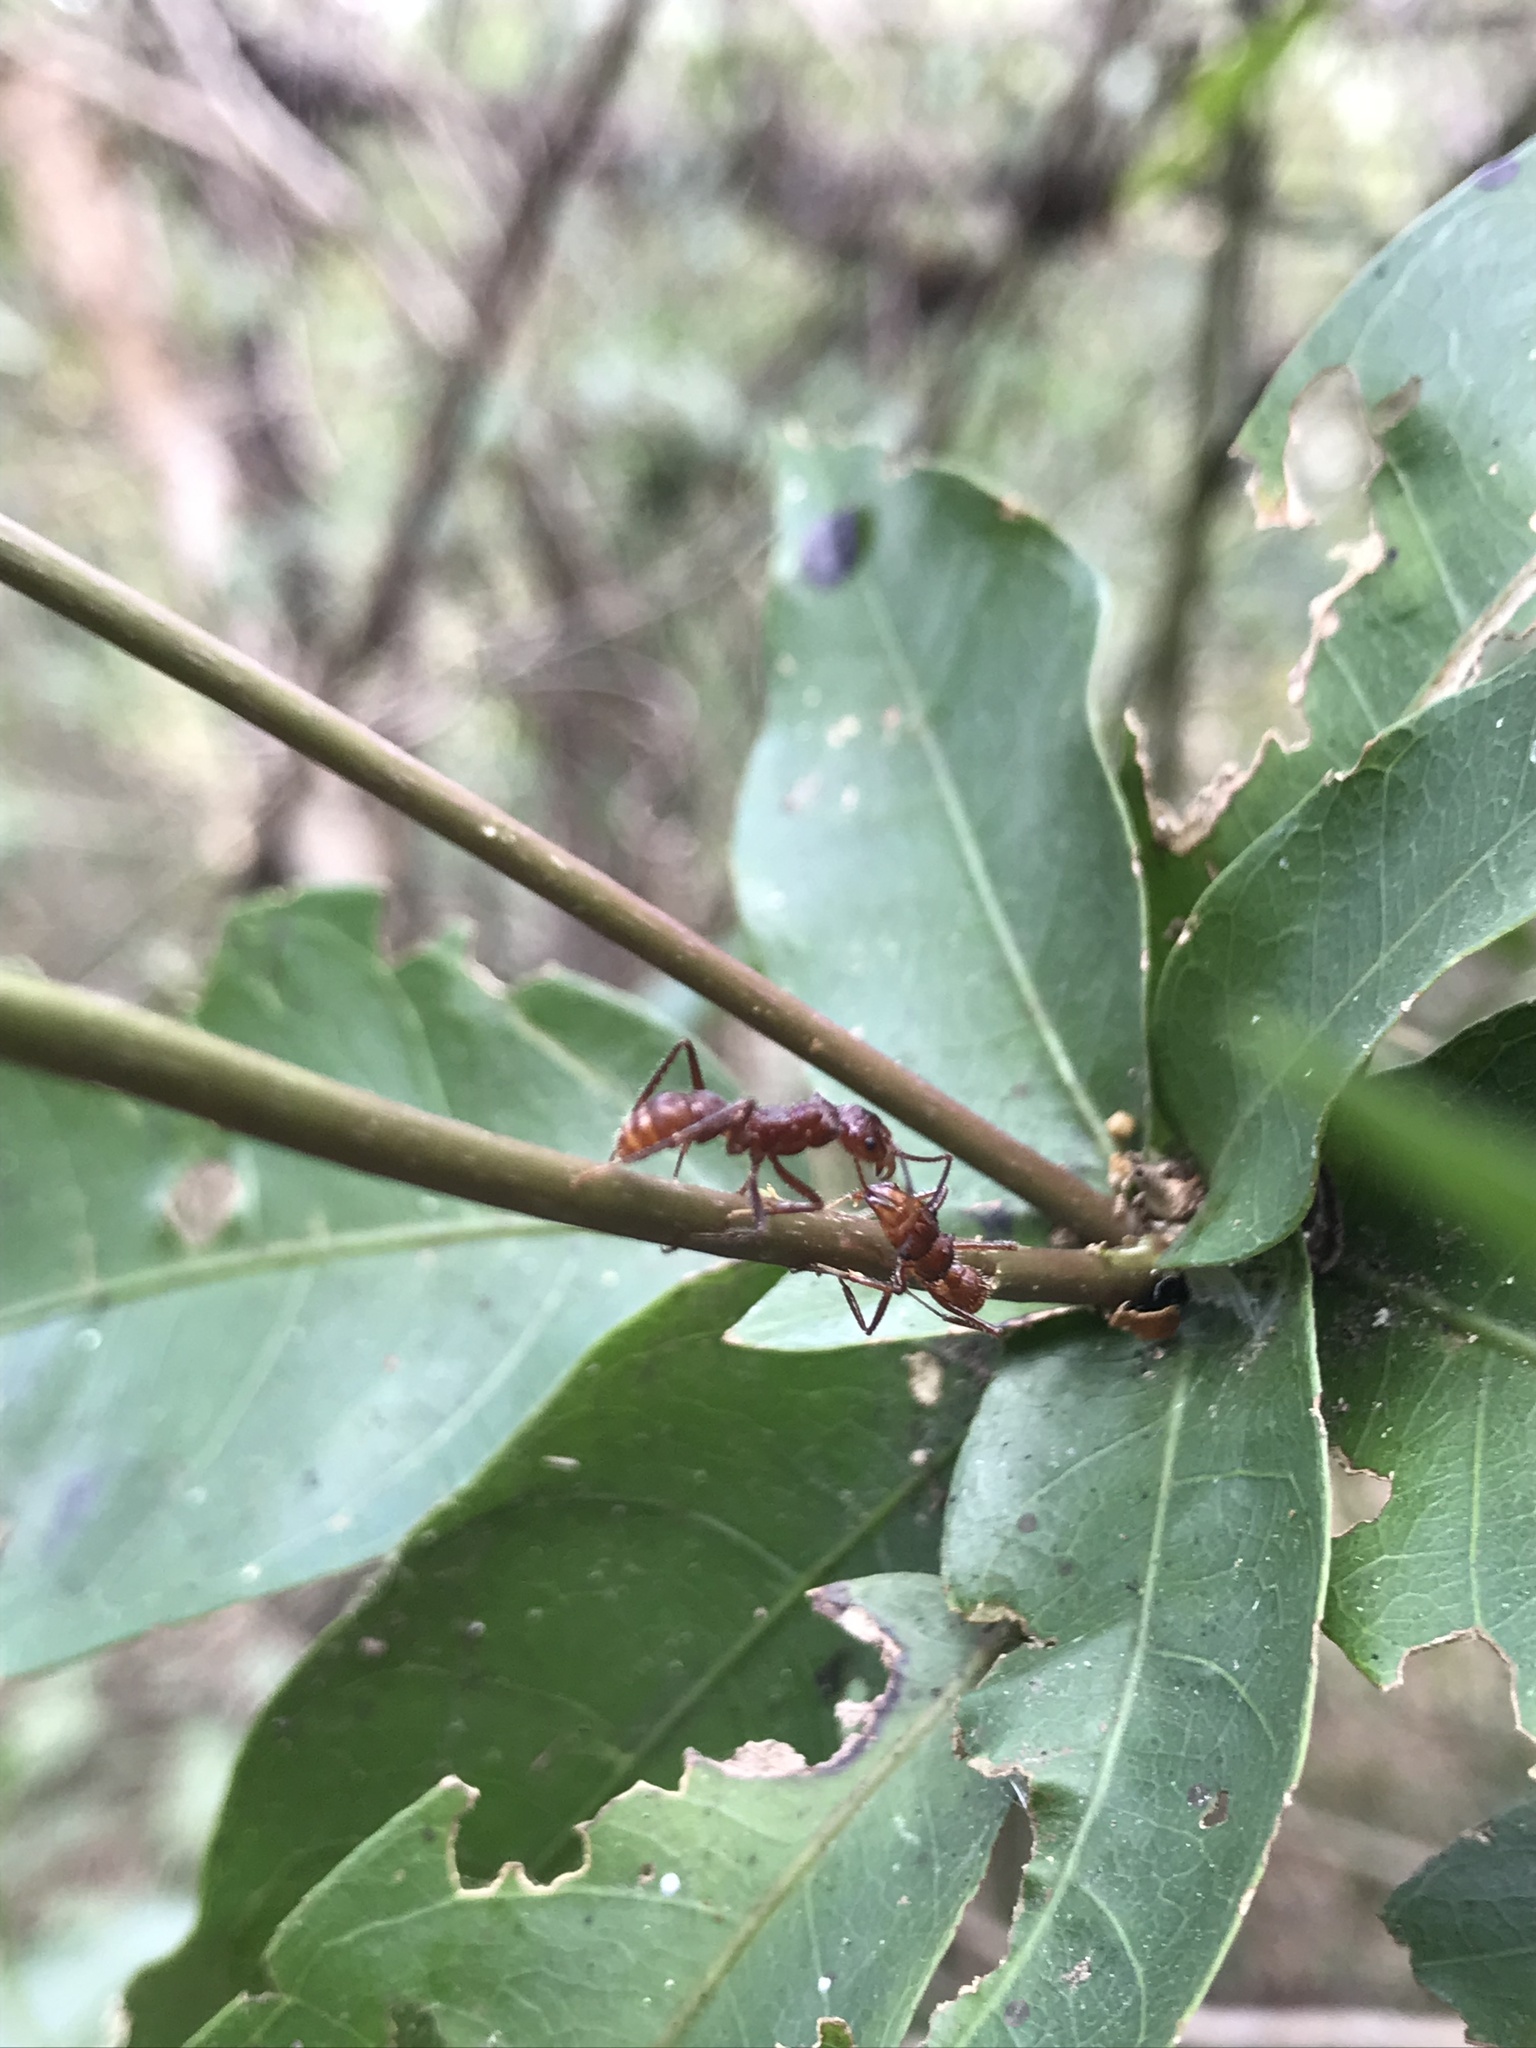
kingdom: Animalia
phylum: Arthropoda
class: Insecta
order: Hymenoptera
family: Formicidae
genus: Ectatomma
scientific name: Ectatomma tuberculatum
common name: Ant
